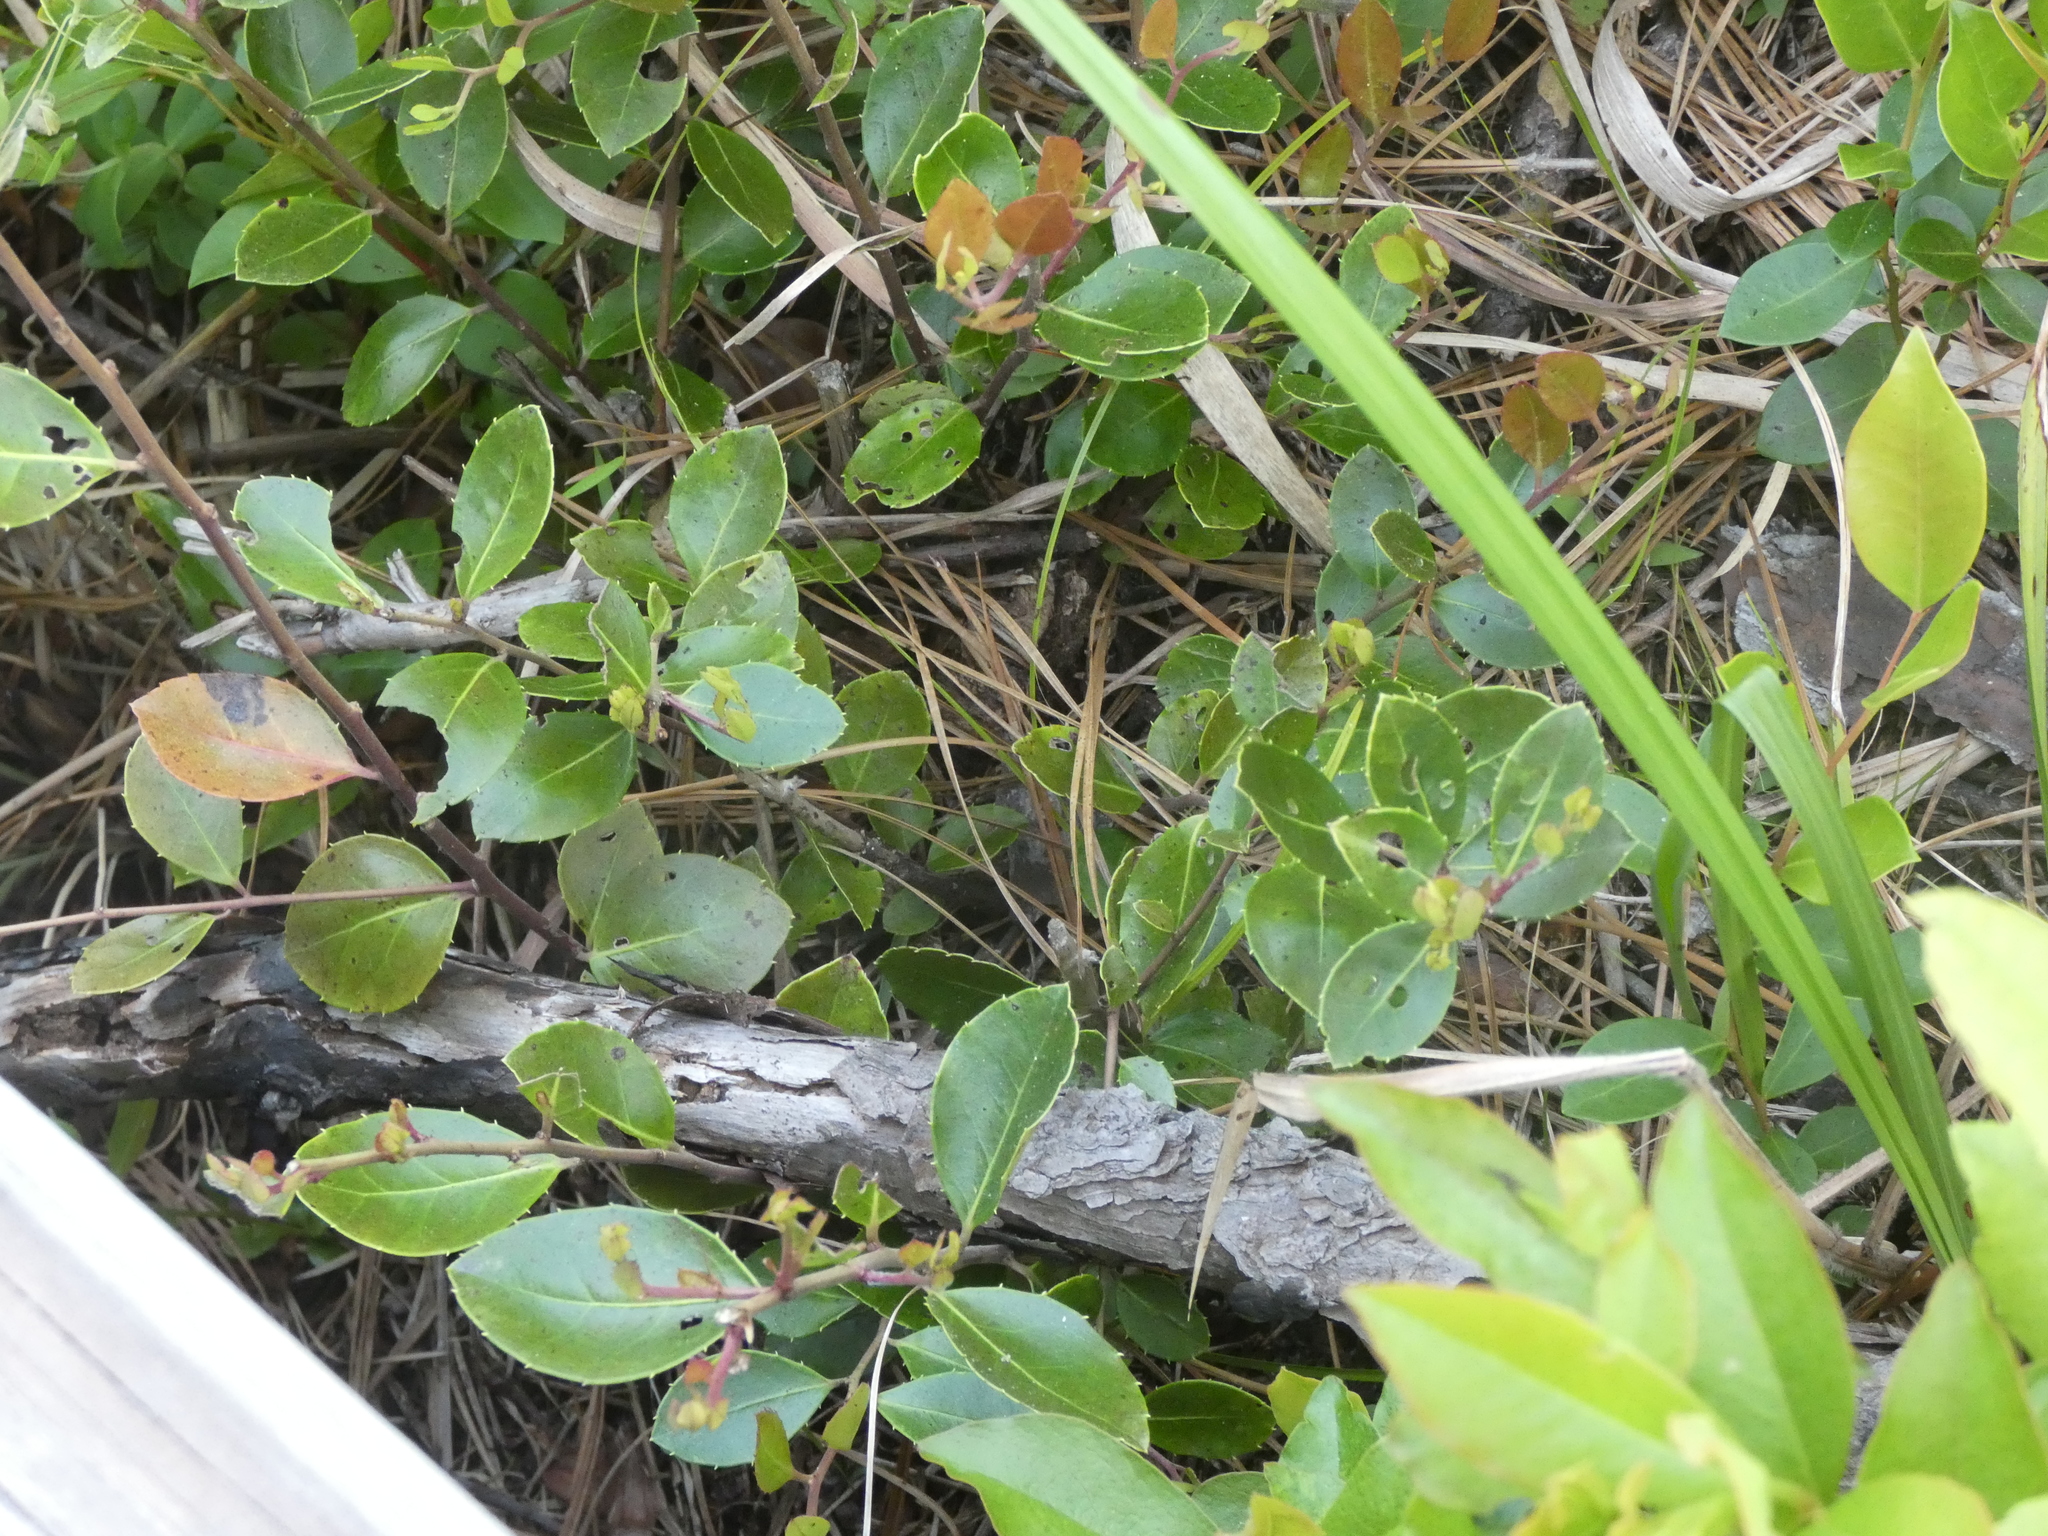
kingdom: Plantae
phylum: Tracheophyta
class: Magnoliopsida
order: Aquifoliales
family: Aquifoliaceae
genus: Ilex
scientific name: Ilex coriacea
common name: Sweet gallberry
